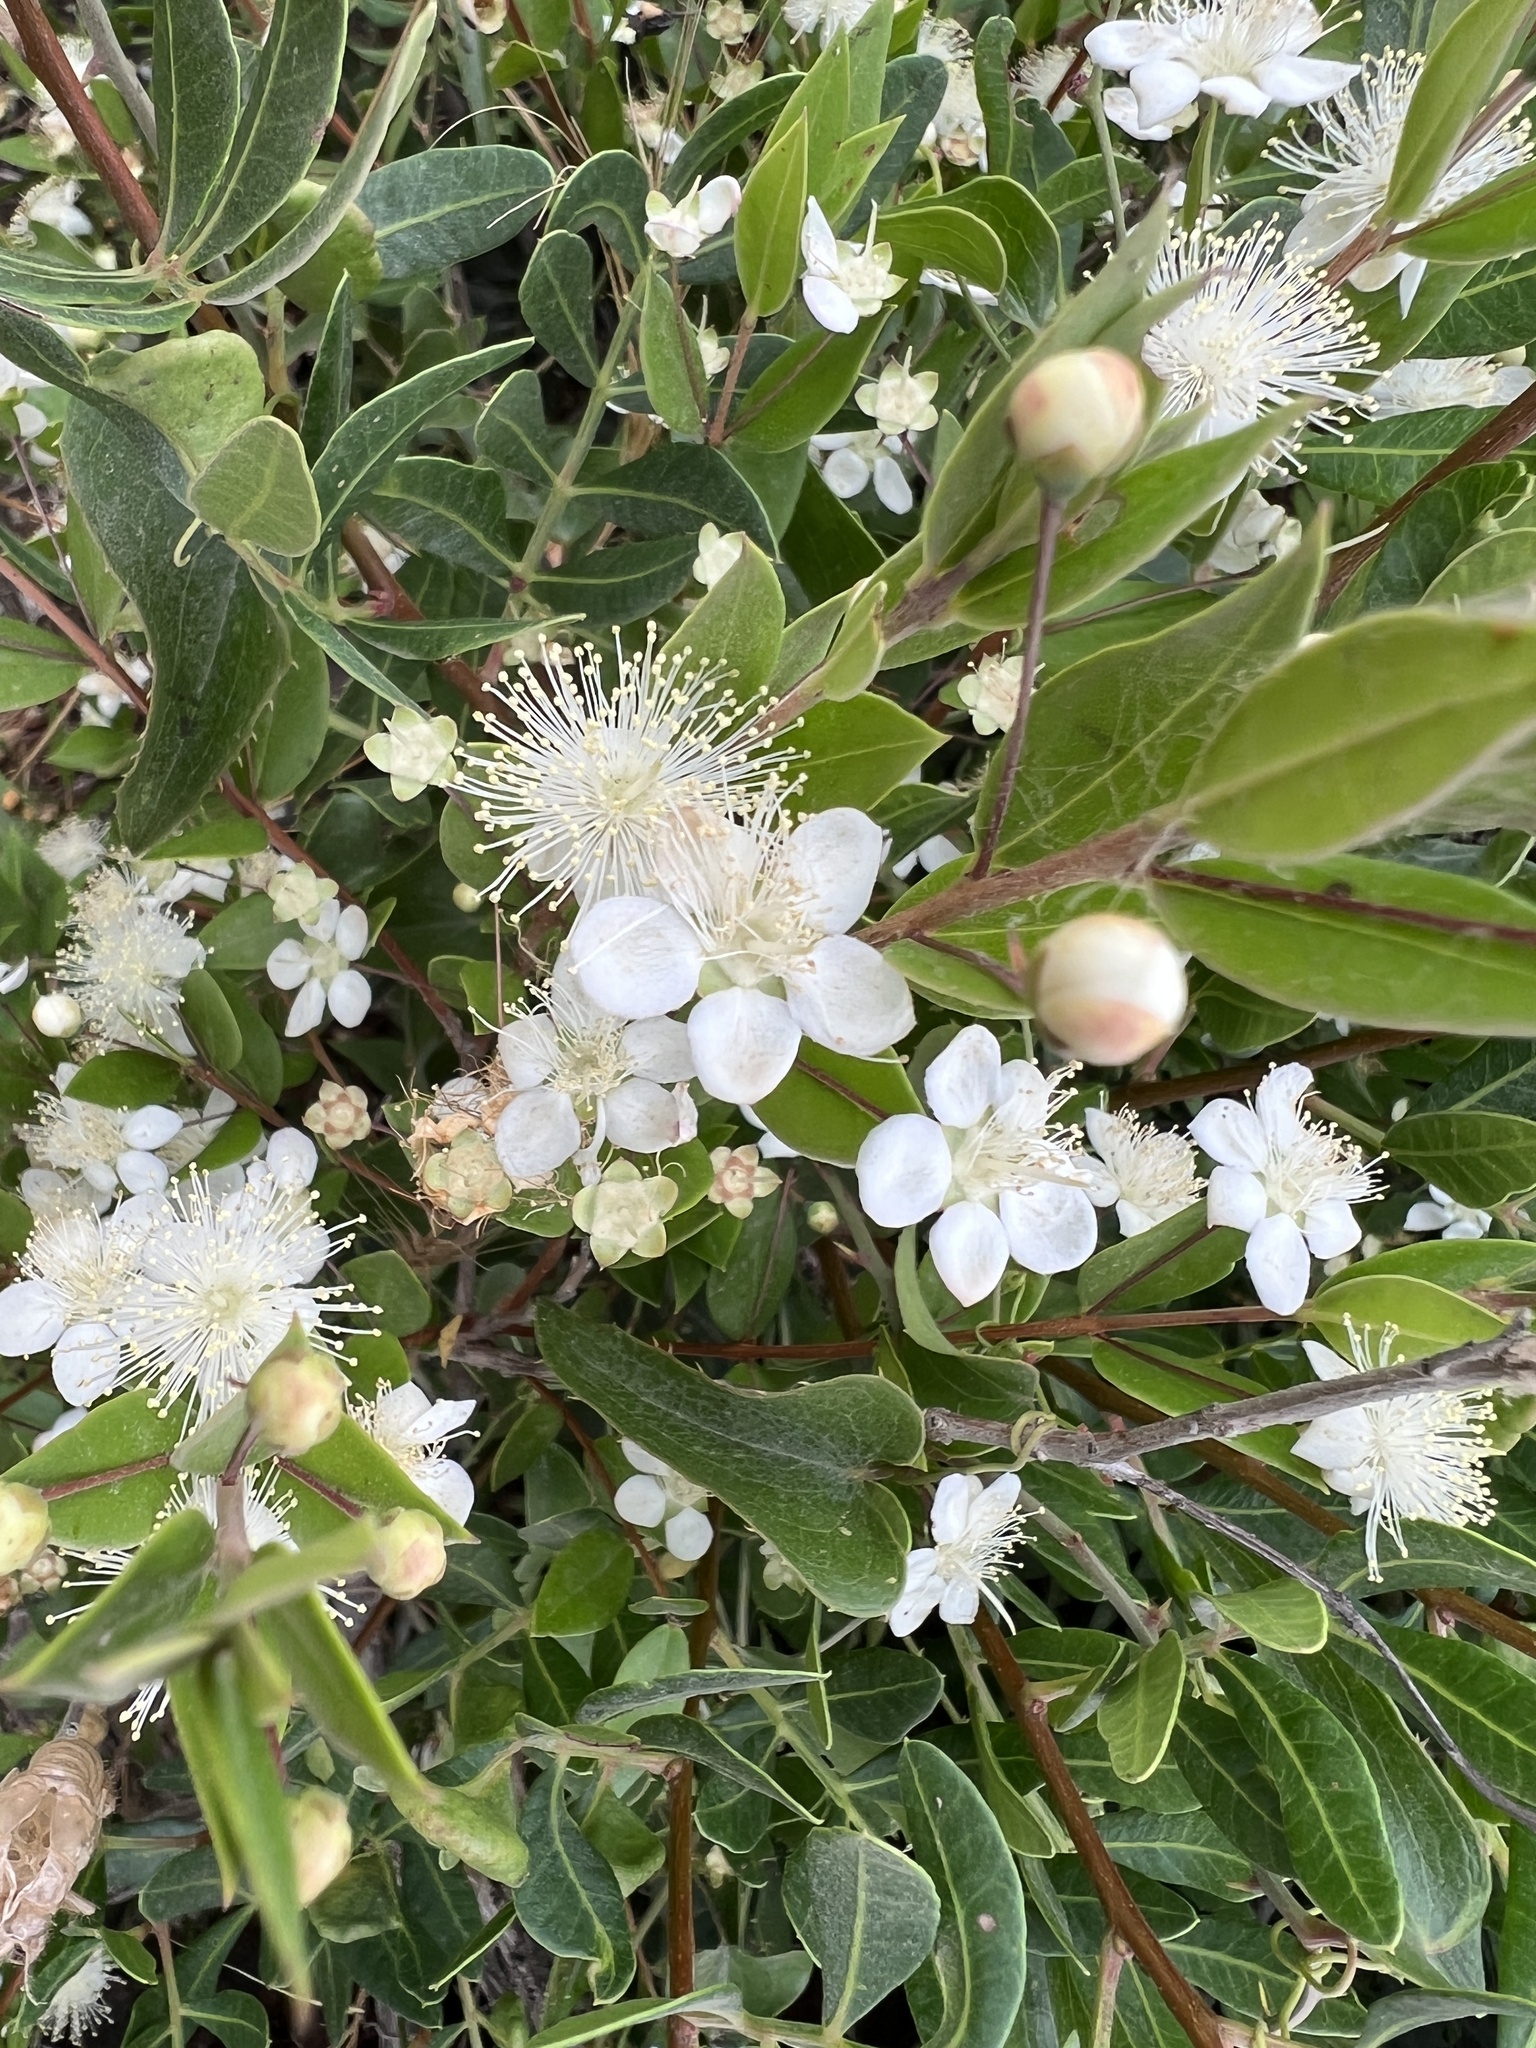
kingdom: Plantae
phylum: Tracheophyta
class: Magnoliopsida
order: Myrtales
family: Myrtaceae
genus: Myrtus
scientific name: Myrtus communis
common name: Myrtle
